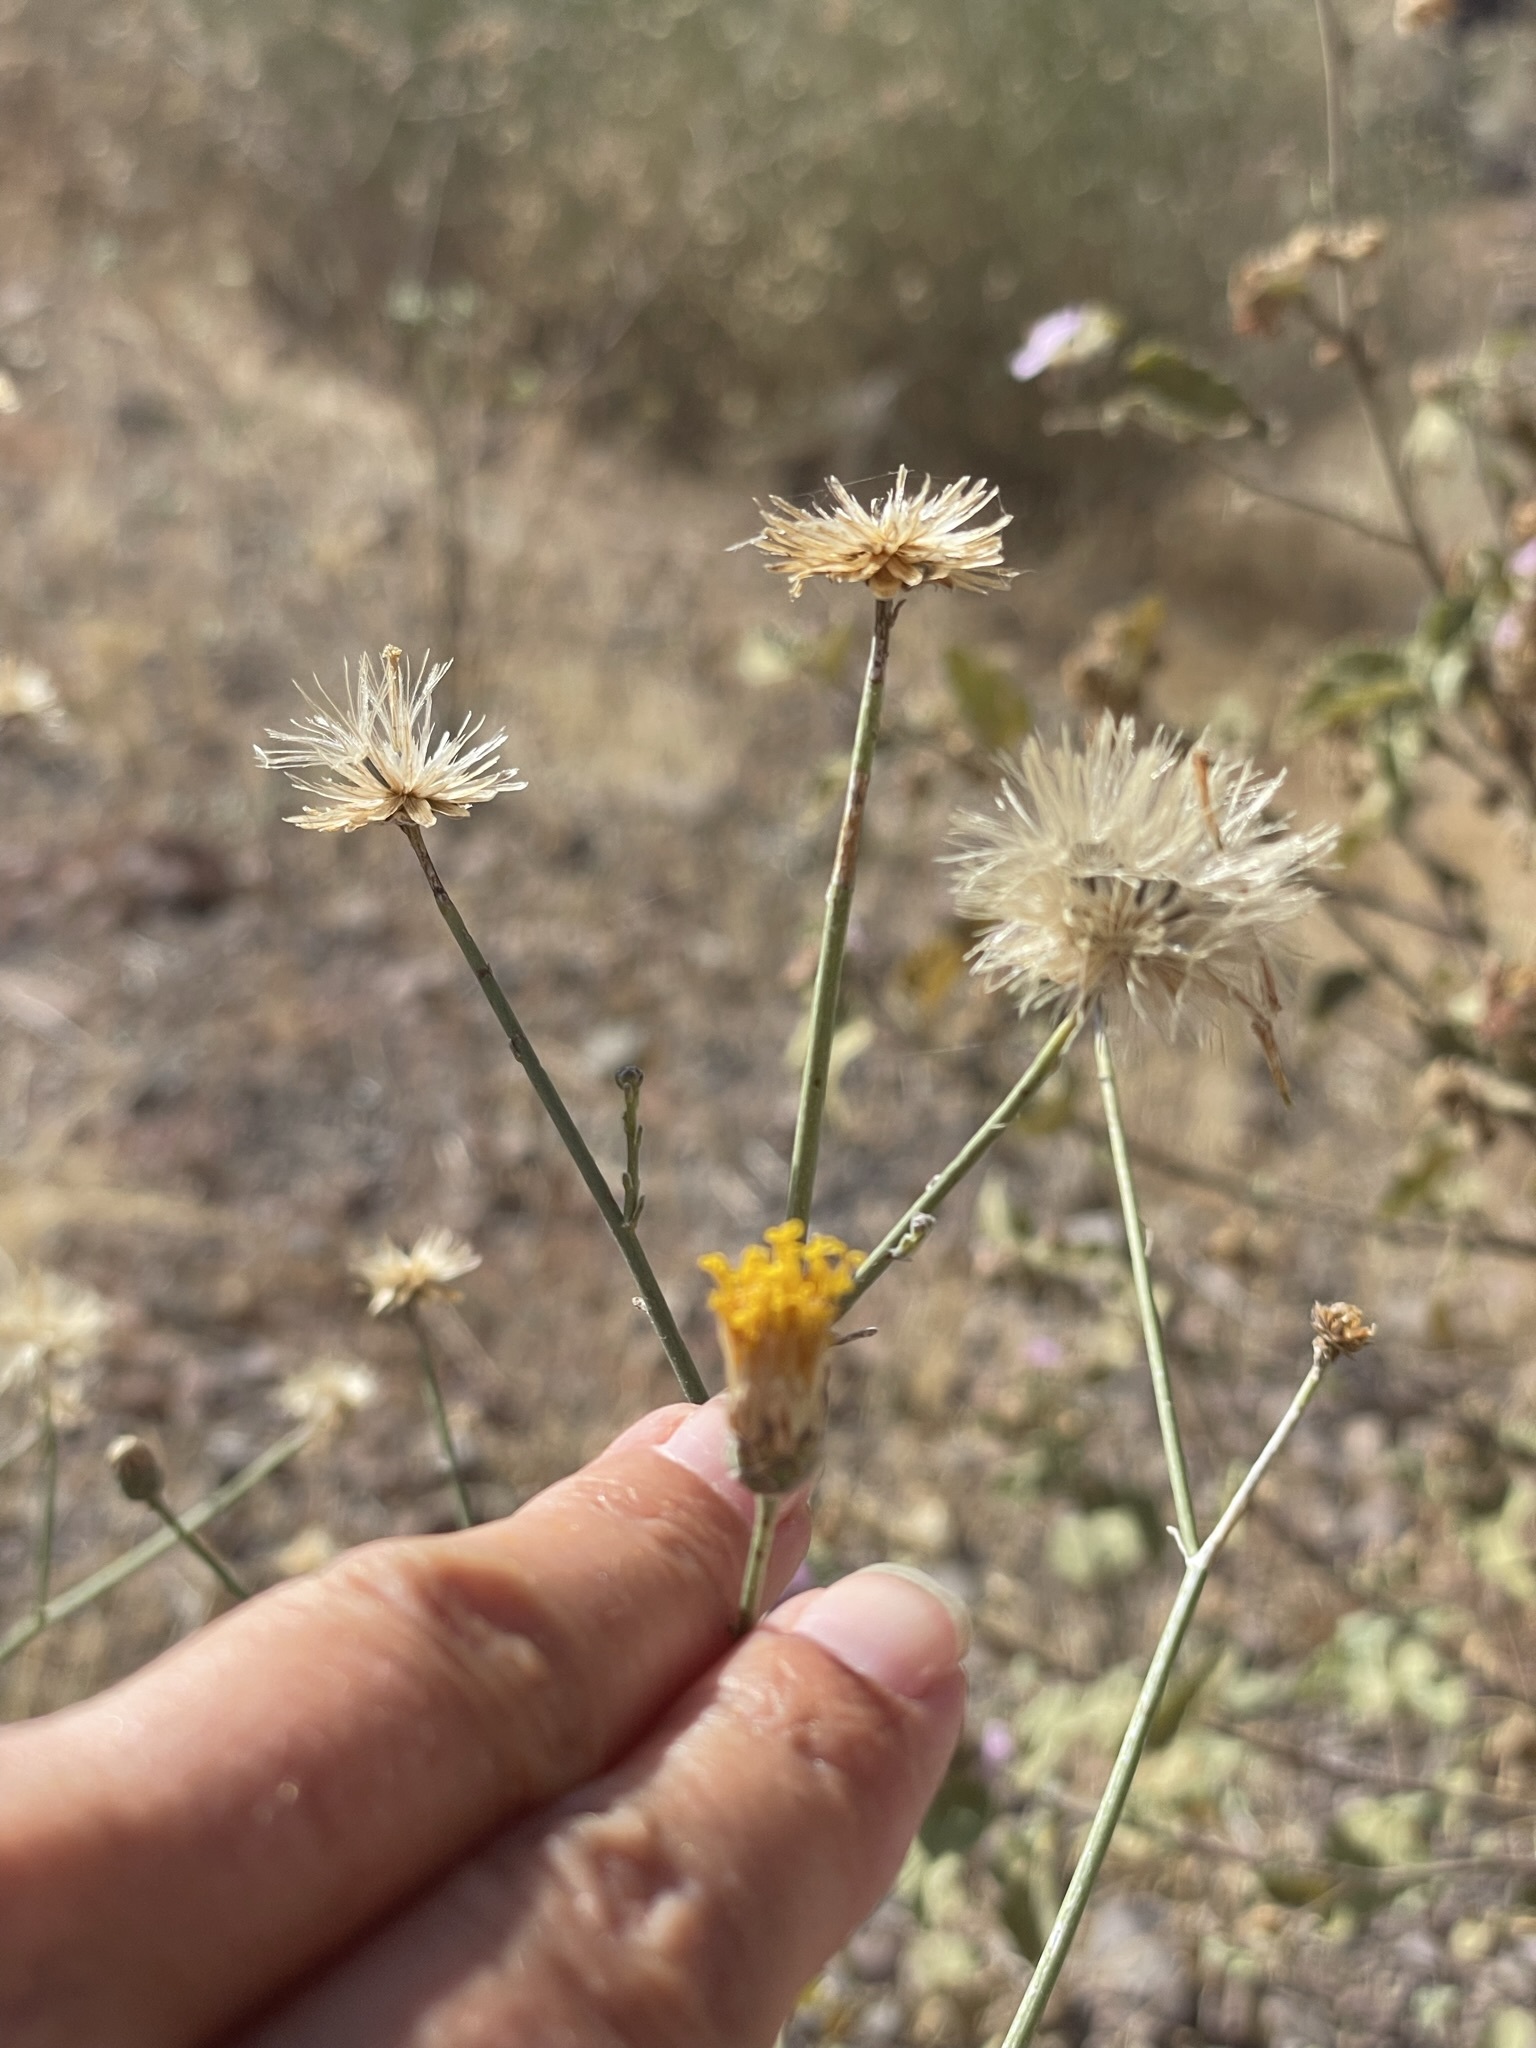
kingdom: Plantae
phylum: Tracheophyta
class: Magnoliopsida
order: Asterales
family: Asteraceae
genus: Bebbia
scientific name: Bebbia juncea
